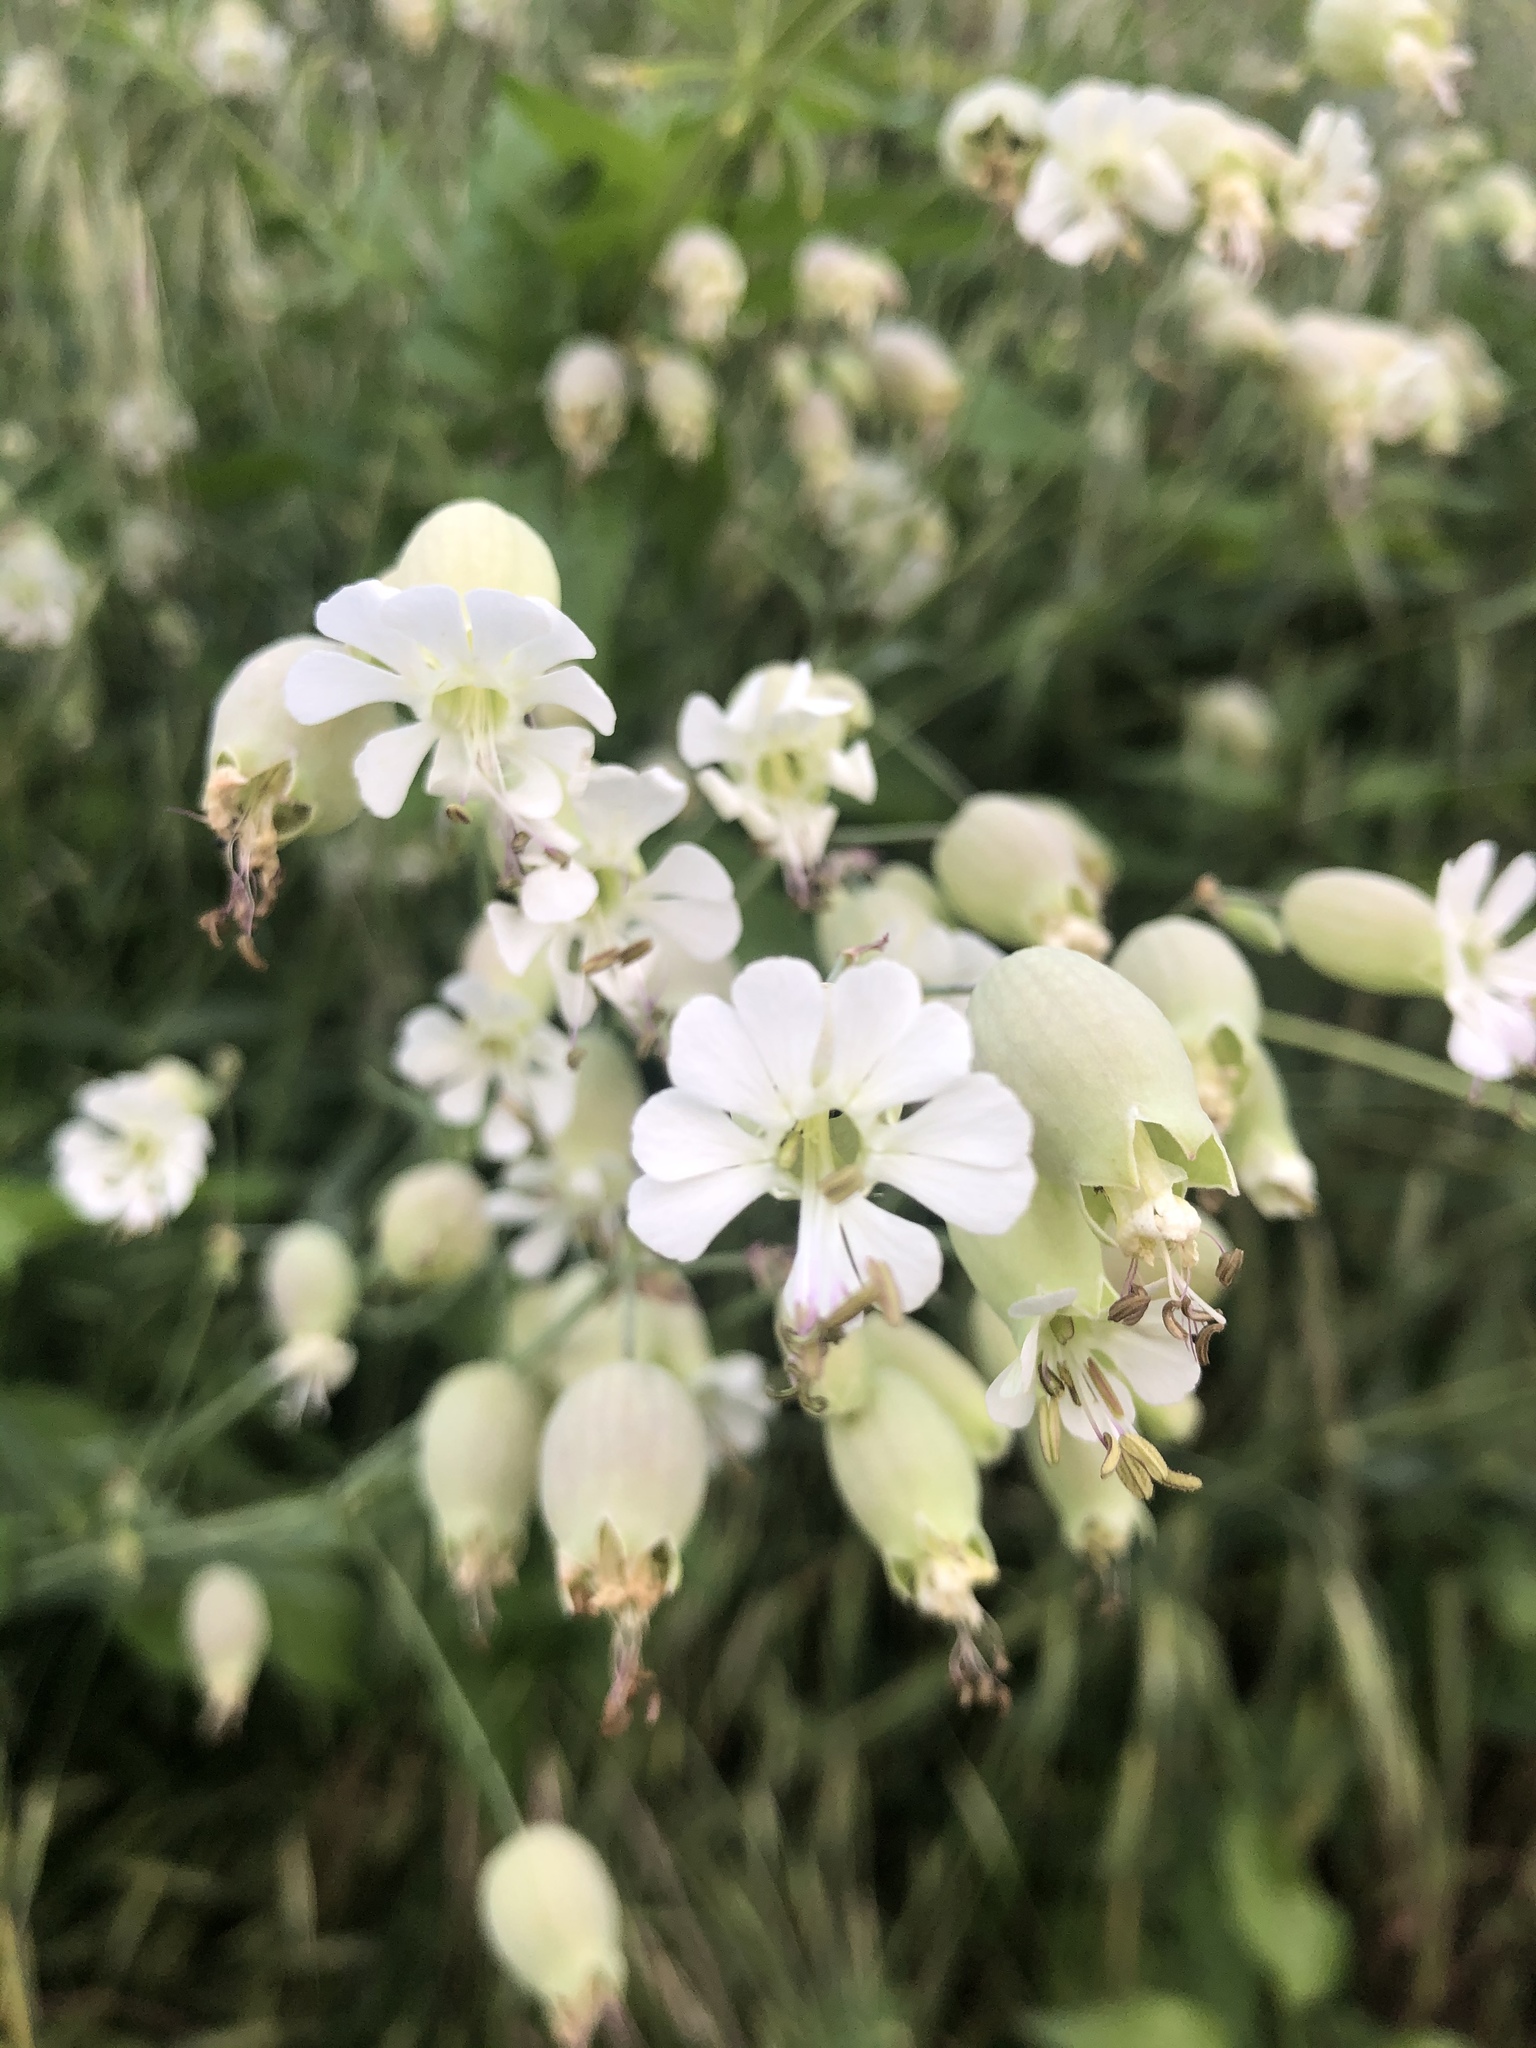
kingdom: Plantae
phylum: Tracheophyta
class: Magnoliopsida
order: Caryophyllales
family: Caryophyllaceae
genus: Silene
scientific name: Silene vulgaris
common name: Bladder campion
